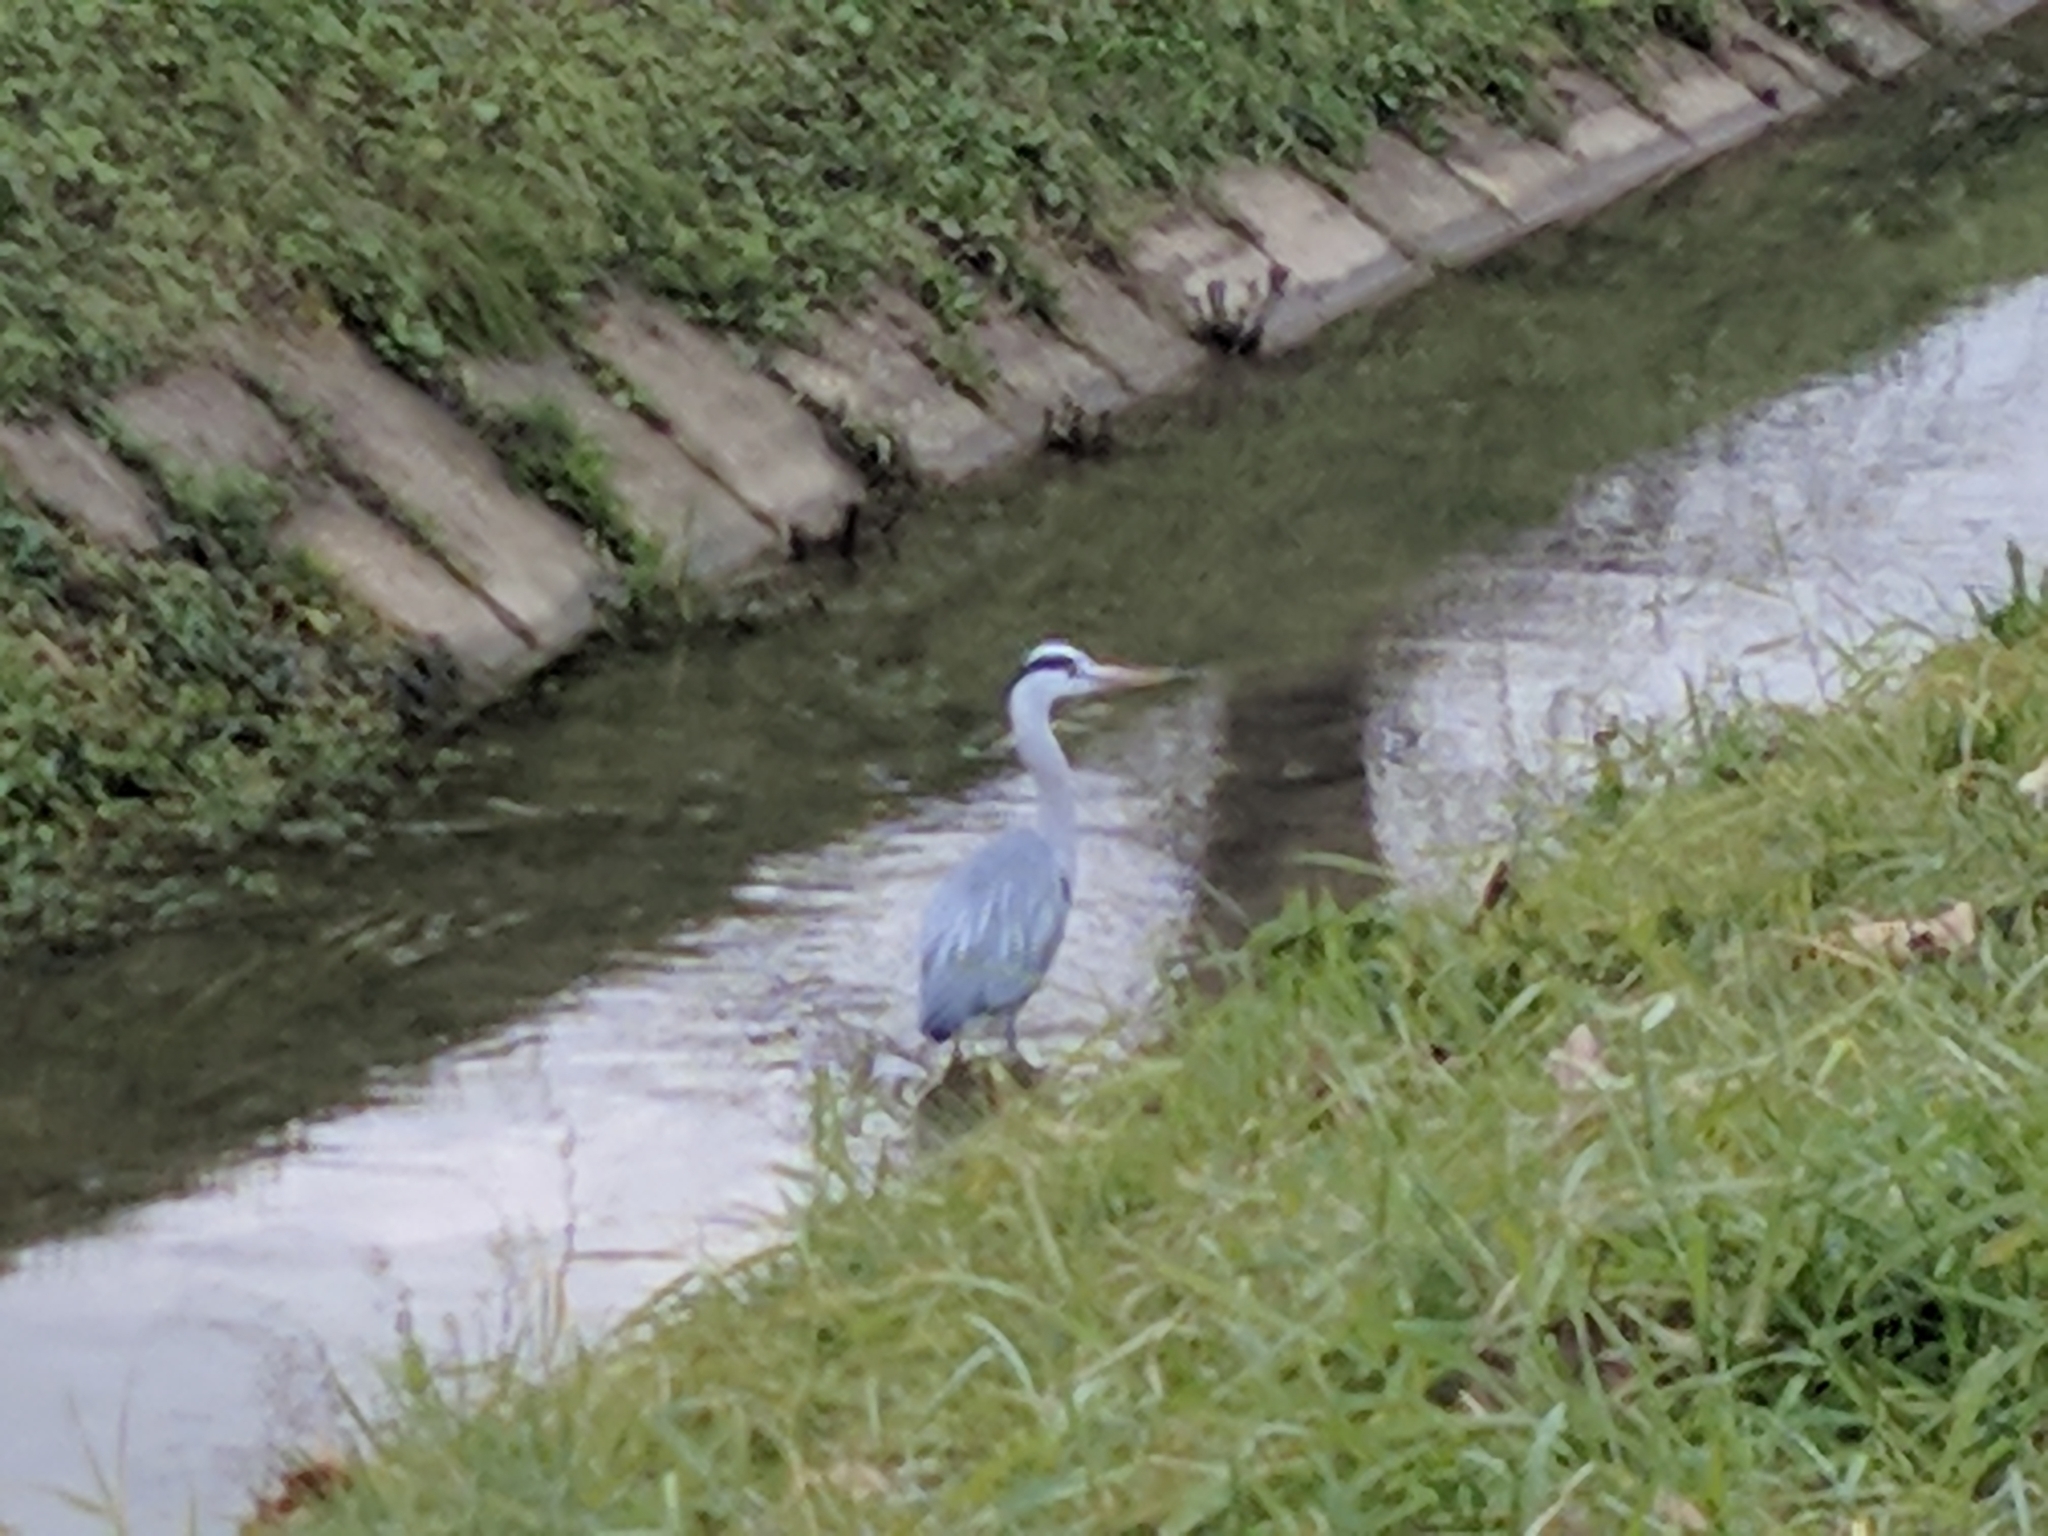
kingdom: Animalia
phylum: Chordata
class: Aves
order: Pelecaniformes
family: Ardeidae
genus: Ardea
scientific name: Ardea cinerea
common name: Grey heron
